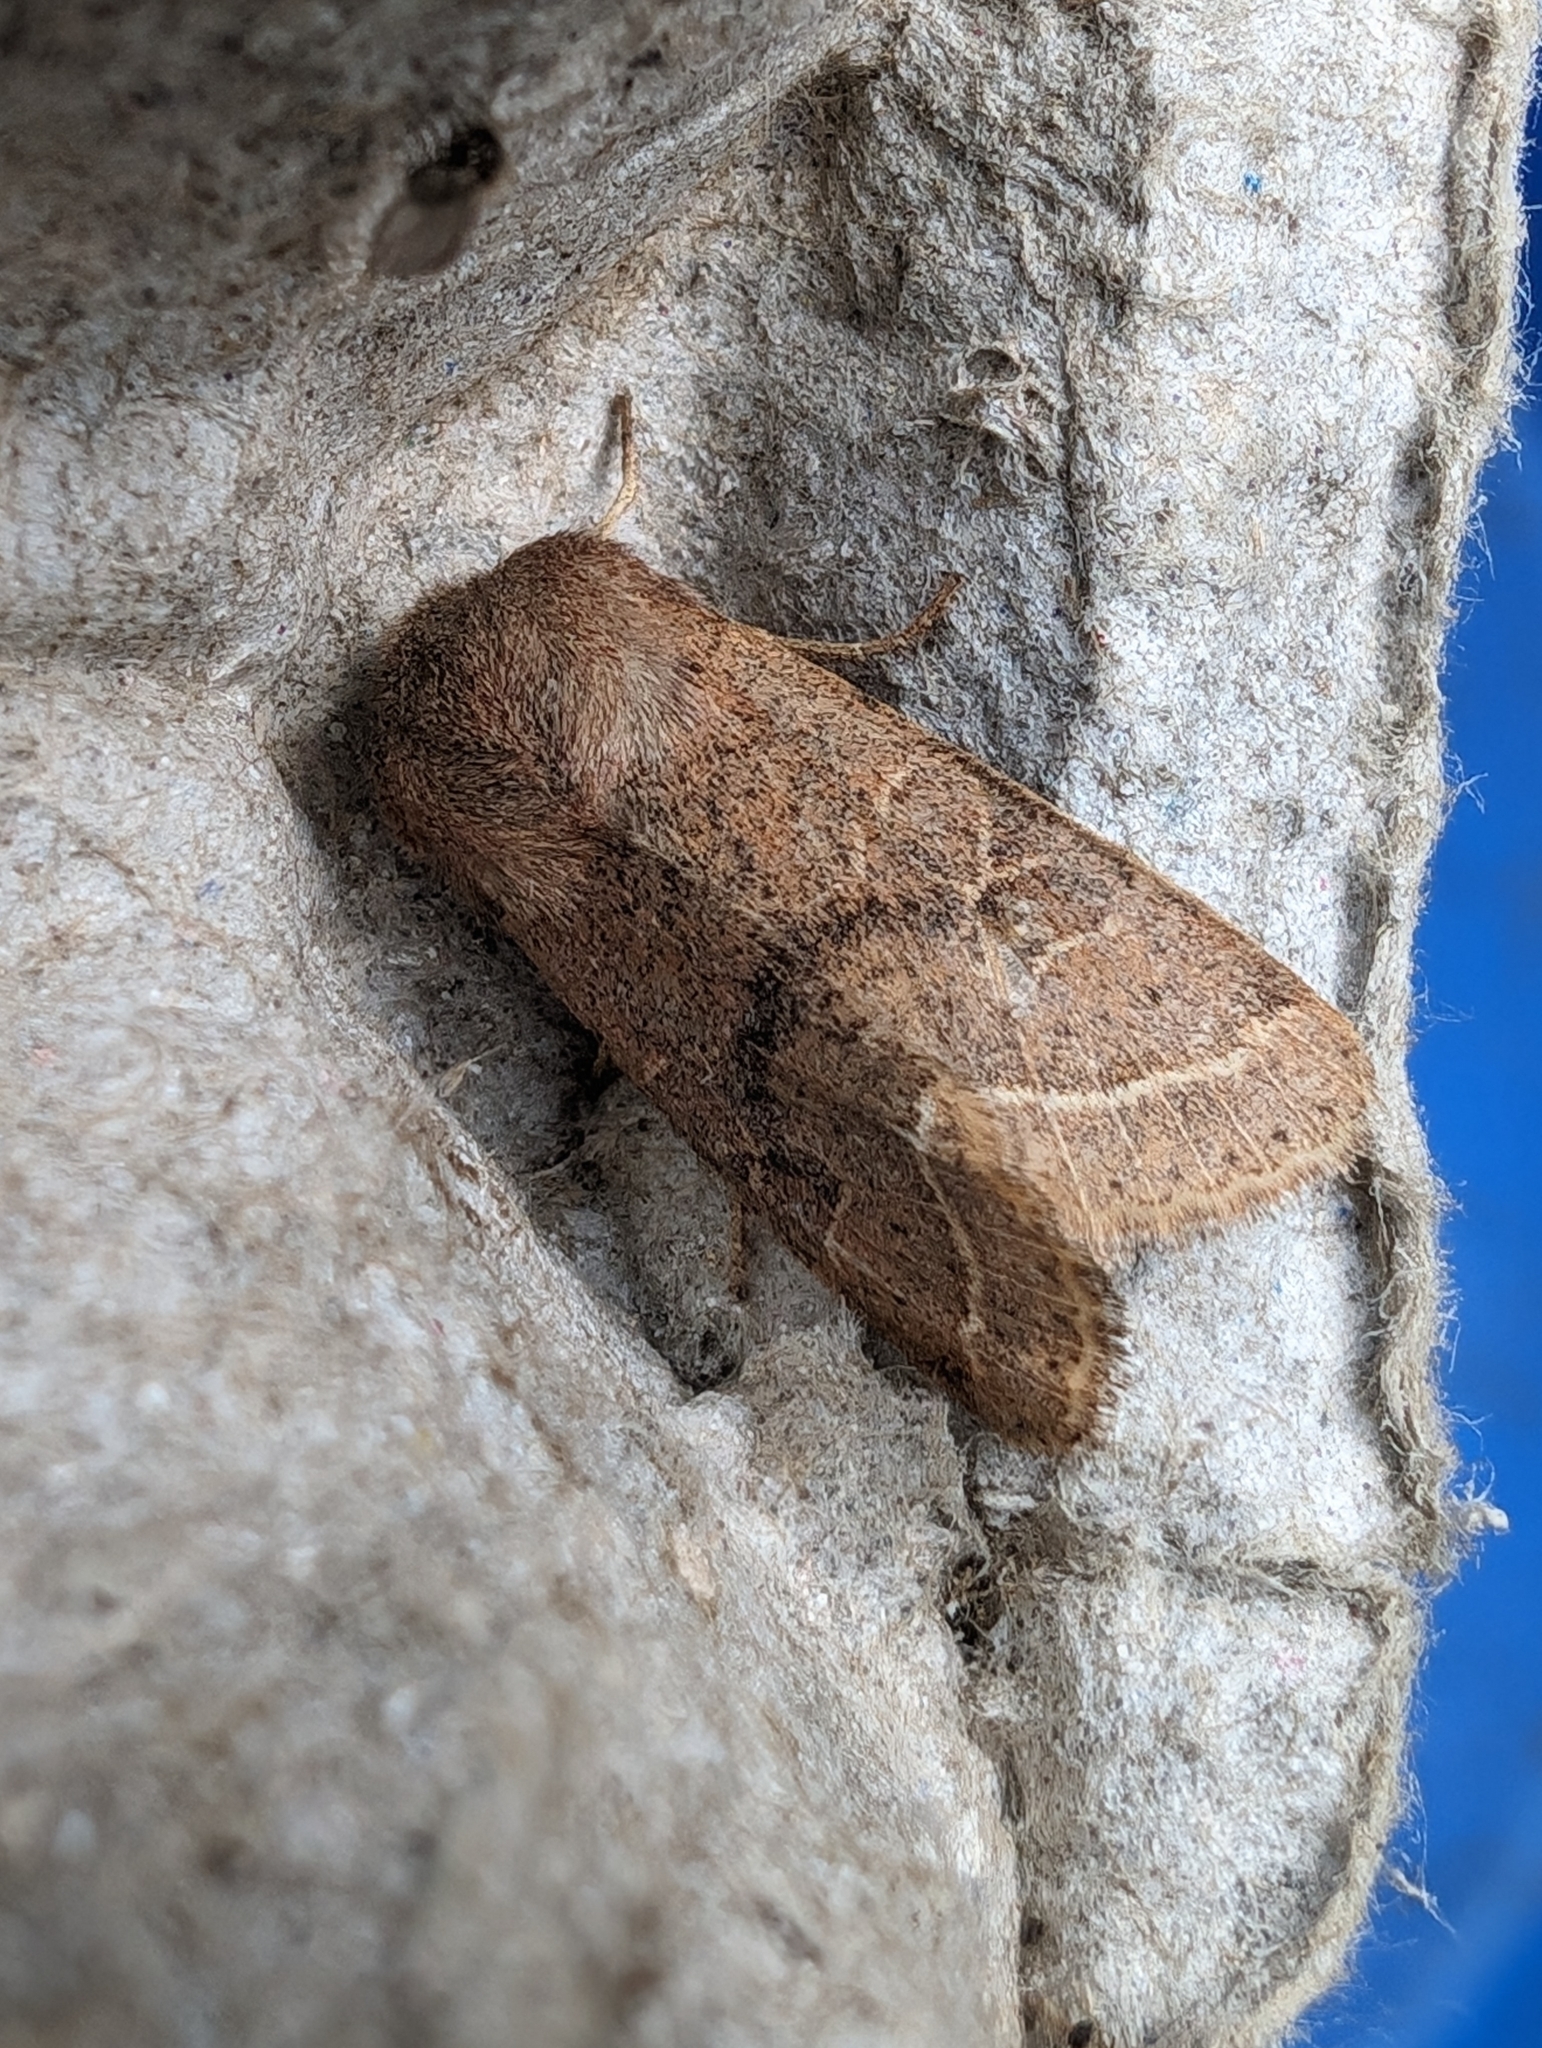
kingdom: Animalia
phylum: Arthropoda
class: Insecta
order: Lepidoptera
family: Noctuidae
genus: Orthosia
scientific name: Orthosia cerasi
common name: Common quaker
